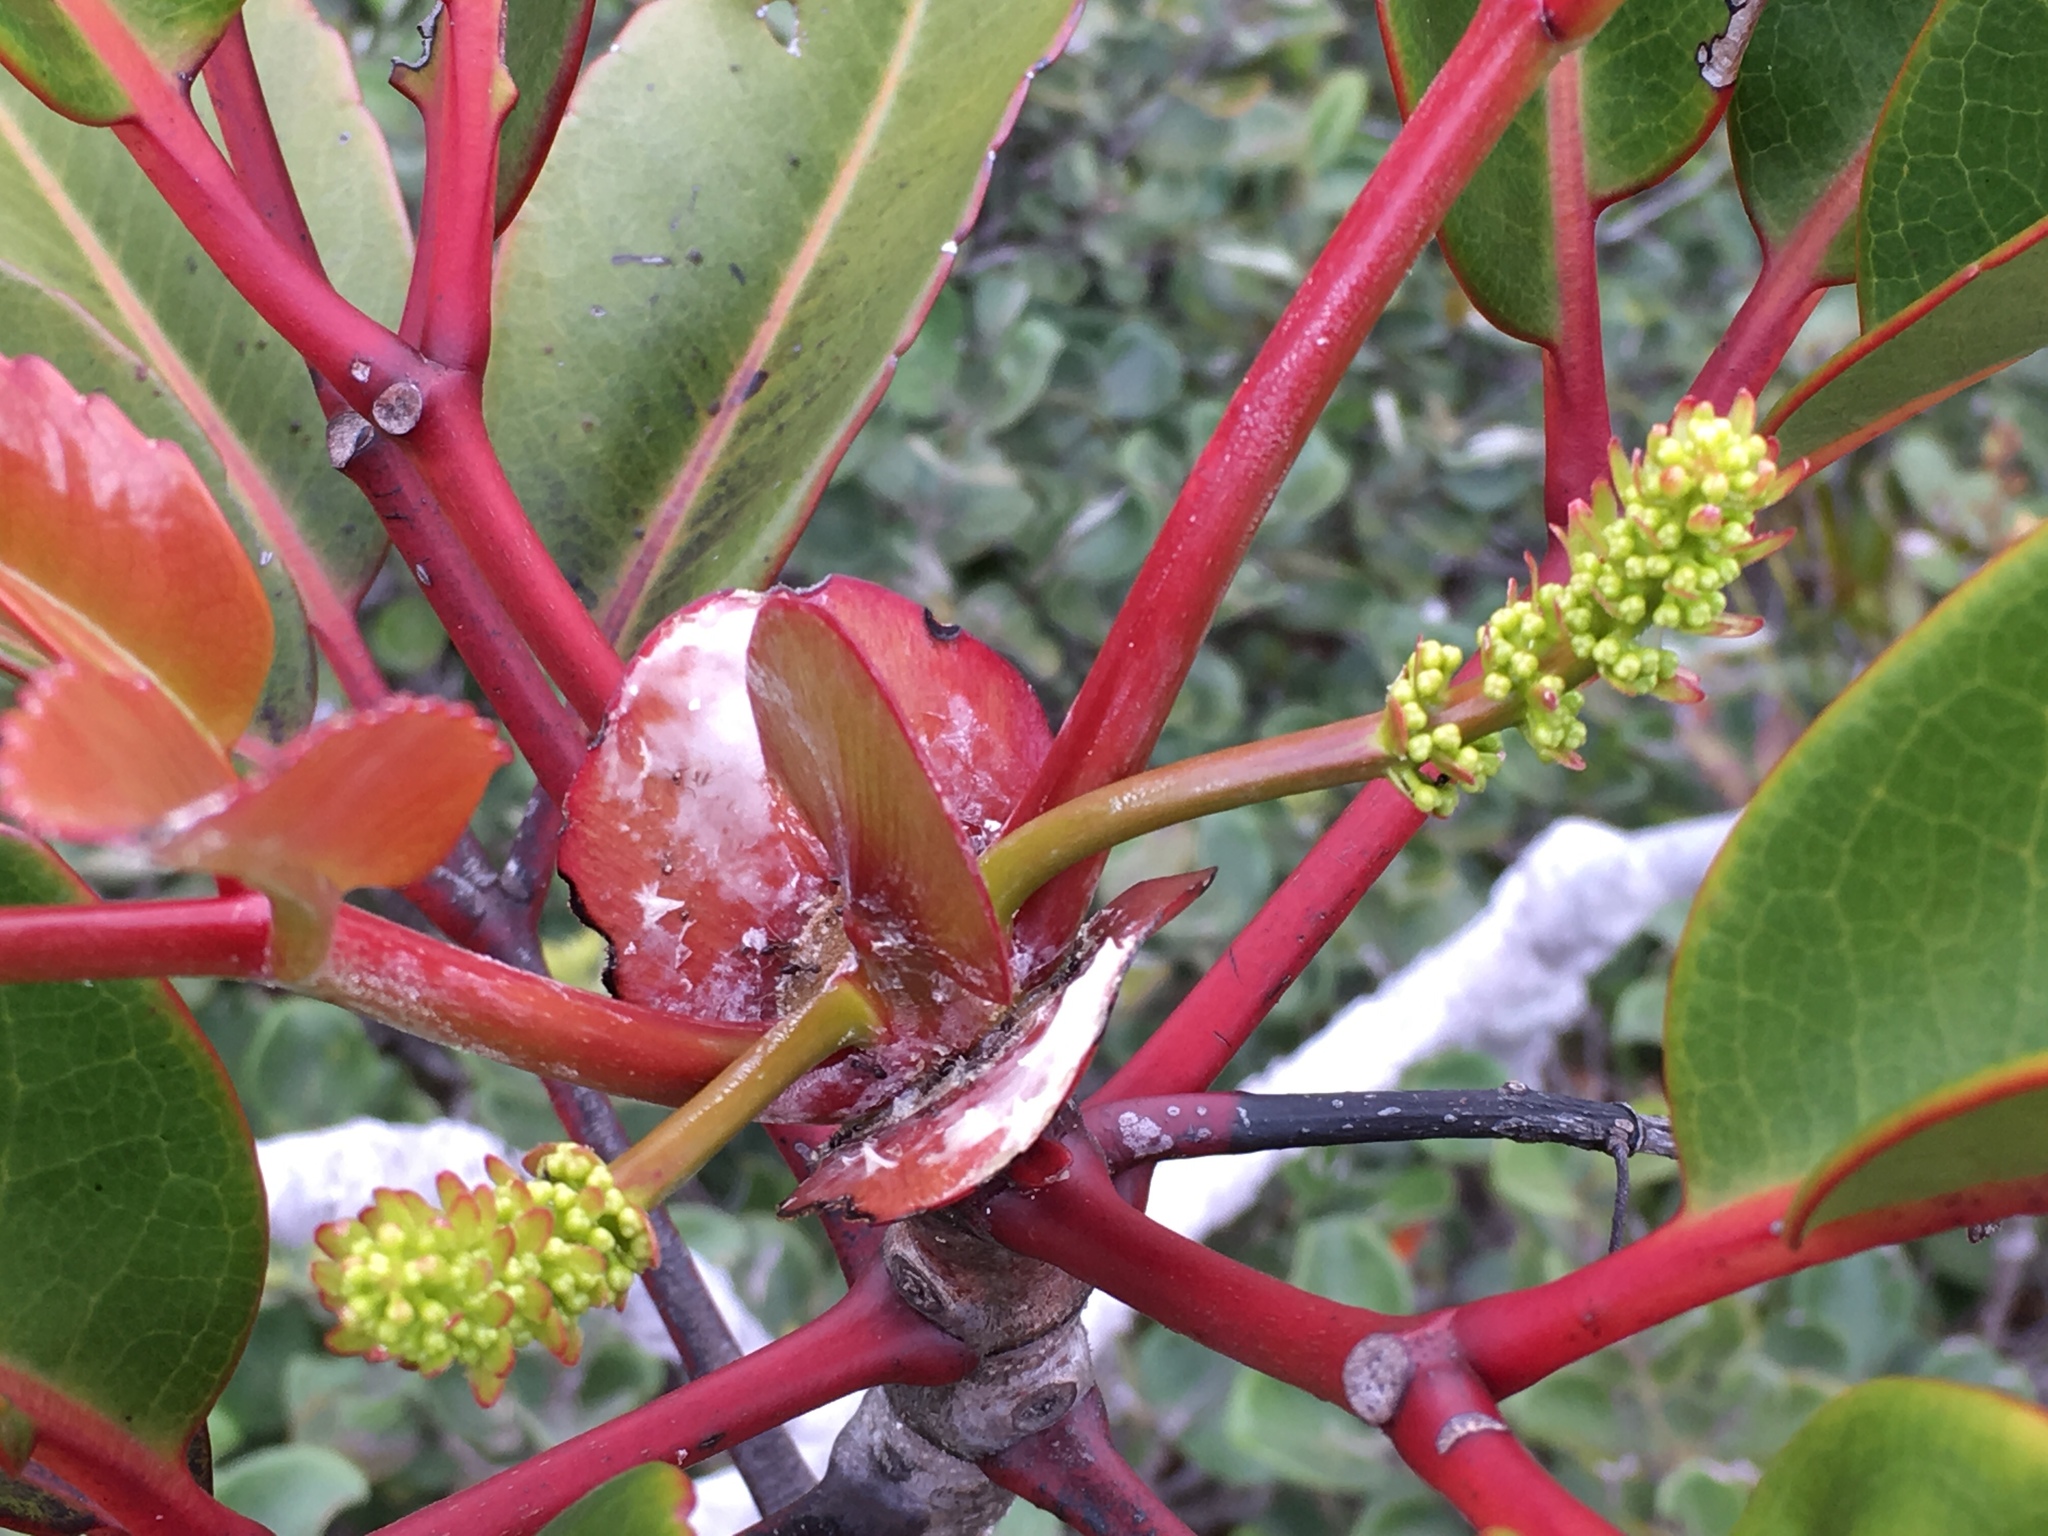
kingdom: Plantae
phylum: Tracheophyta
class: Magnoliopsida
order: Oxalidales
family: Cunoniaceae
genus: Cunonia
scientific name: Cunonia macrophylla
